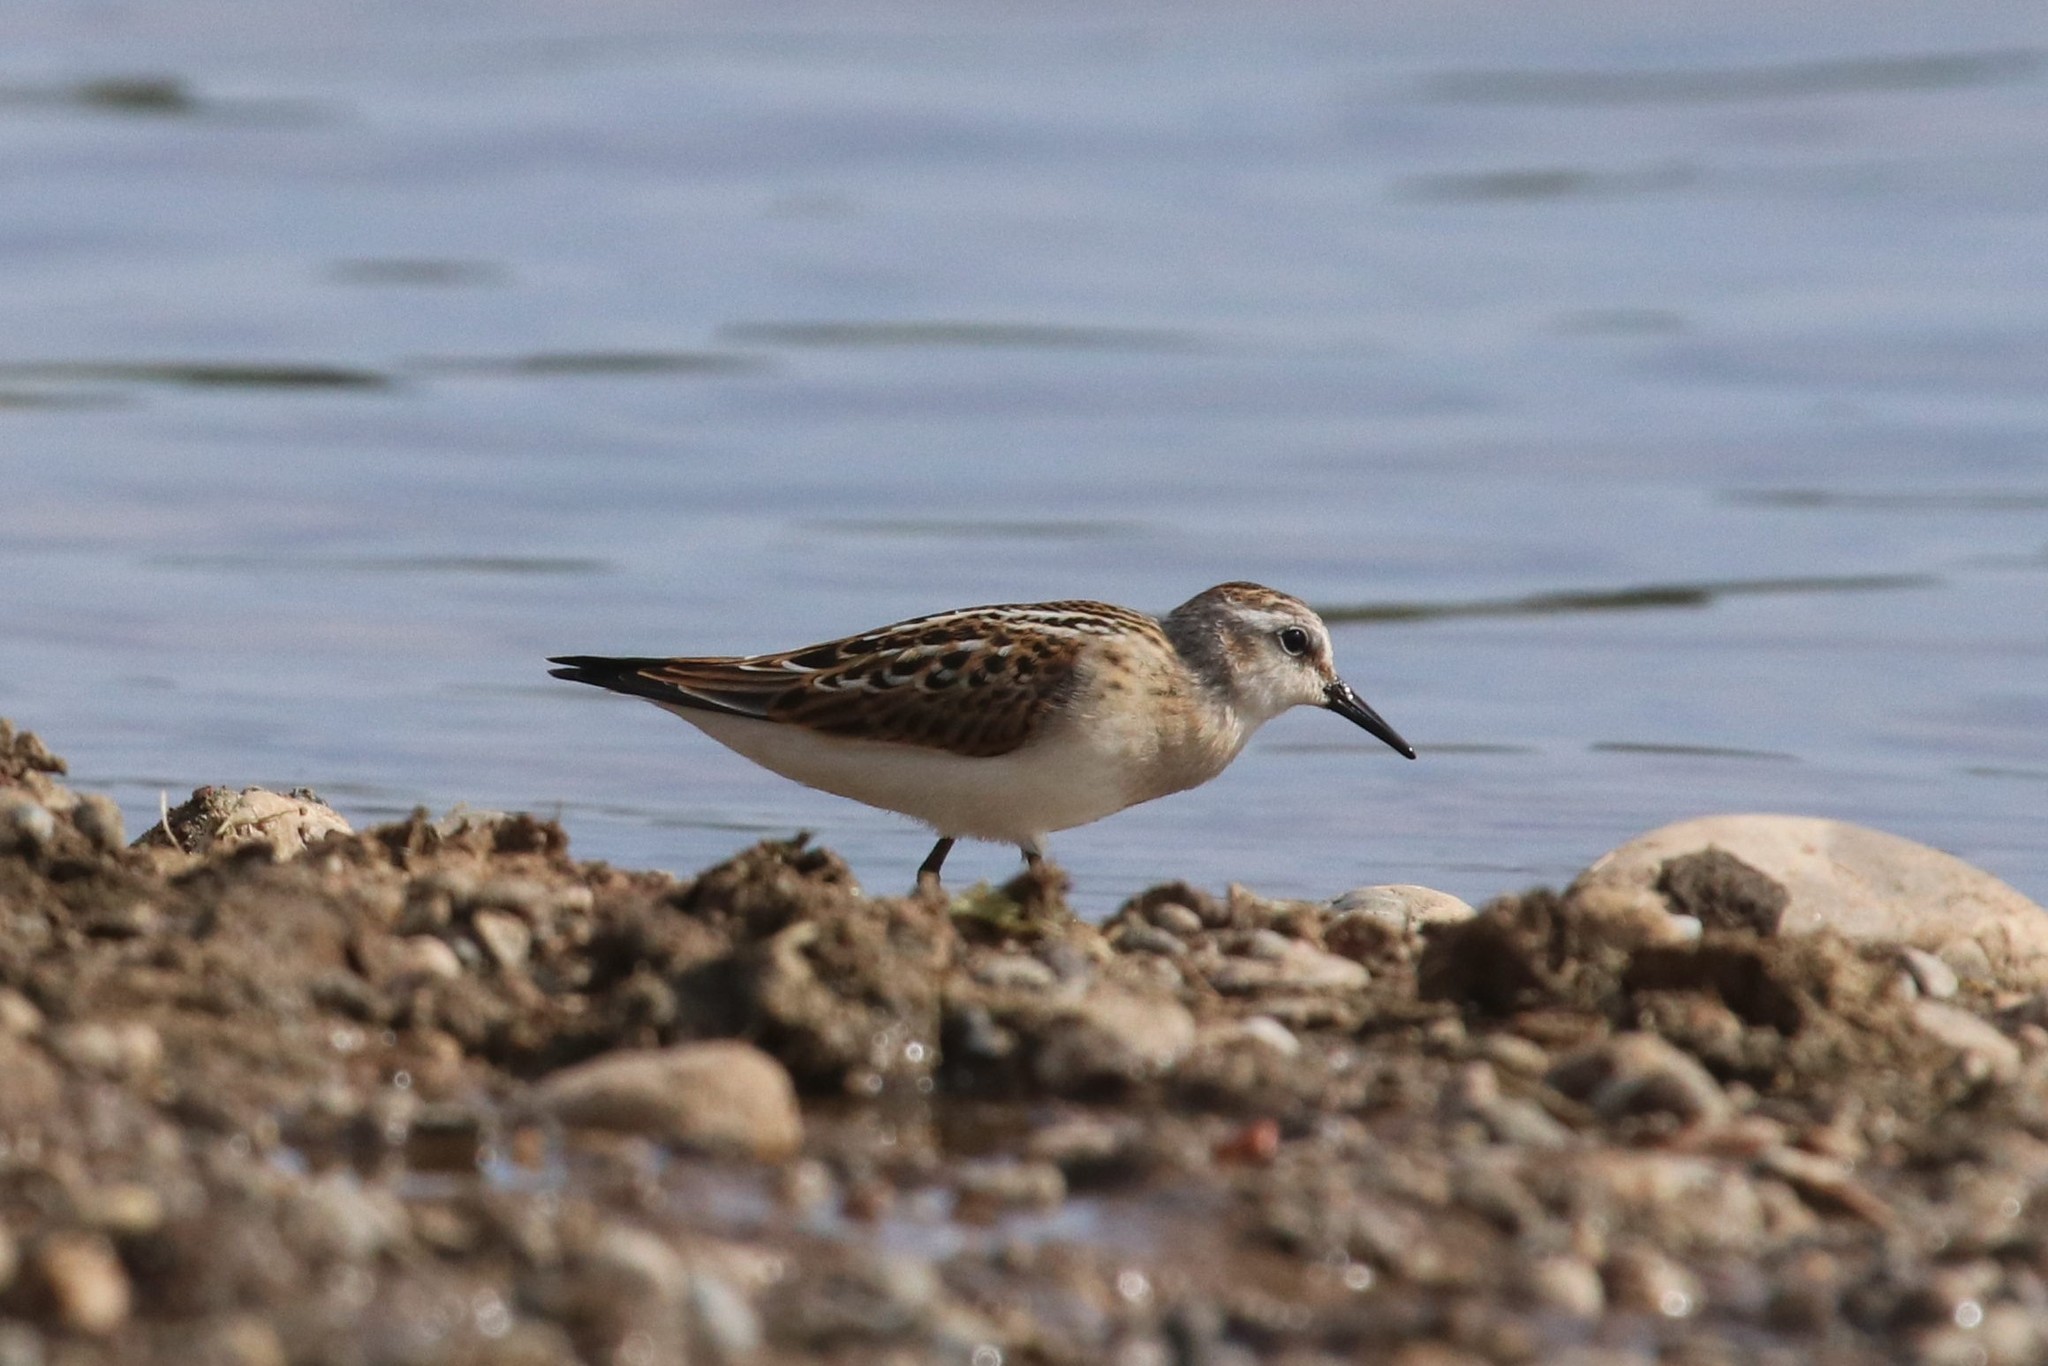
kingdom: Animalia
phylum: Chordata
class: Aves
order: Charadriiformes
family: Scolopacidae
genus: Calidris
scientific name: Calidris minuta
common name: Little stint
